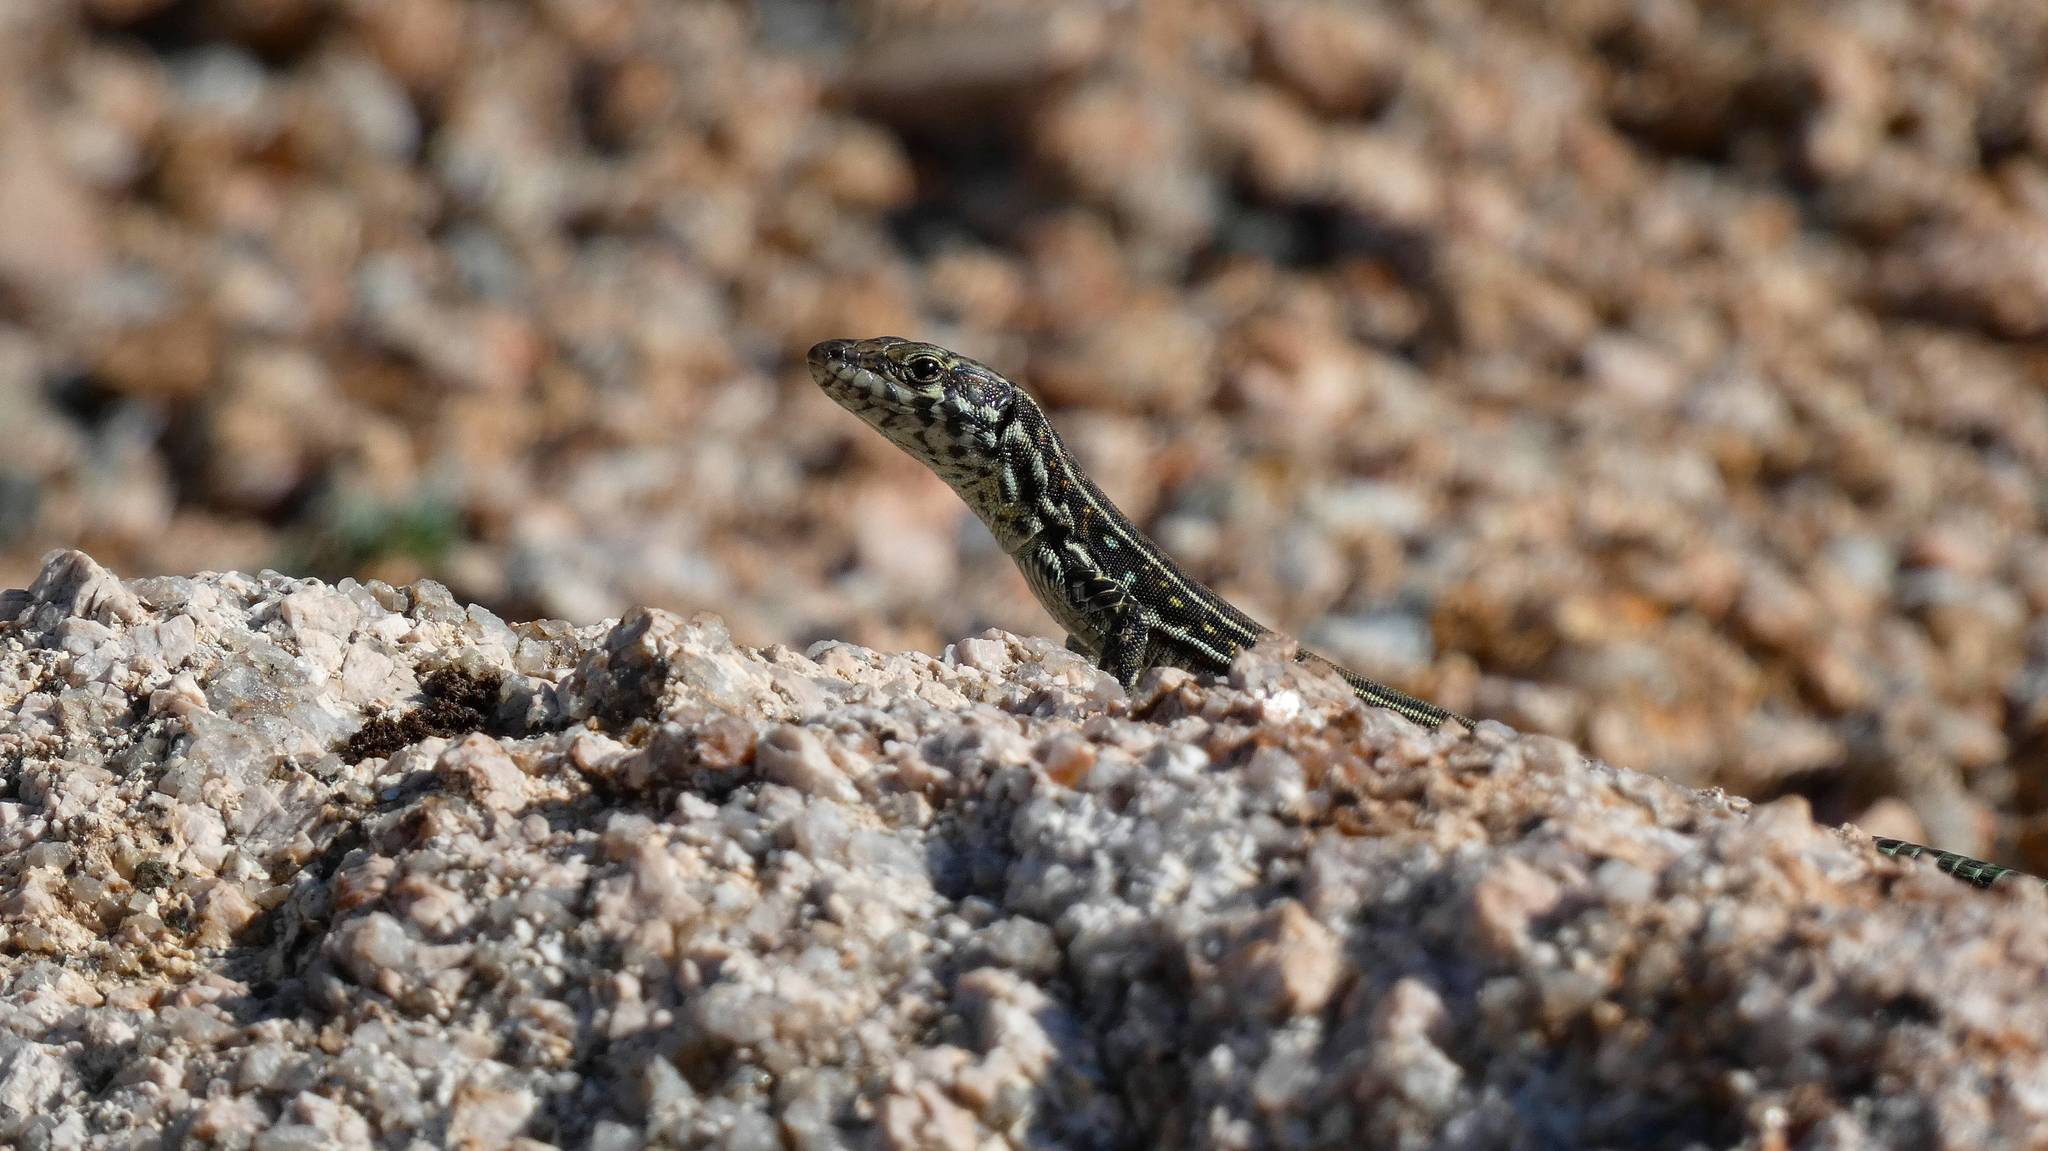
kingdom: Animalia
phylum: Chordata
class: Squamata
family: Lacertidae
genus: Podarcis
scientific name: Podarcis tiliguerta
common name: Tyrrhenian wall lizard
